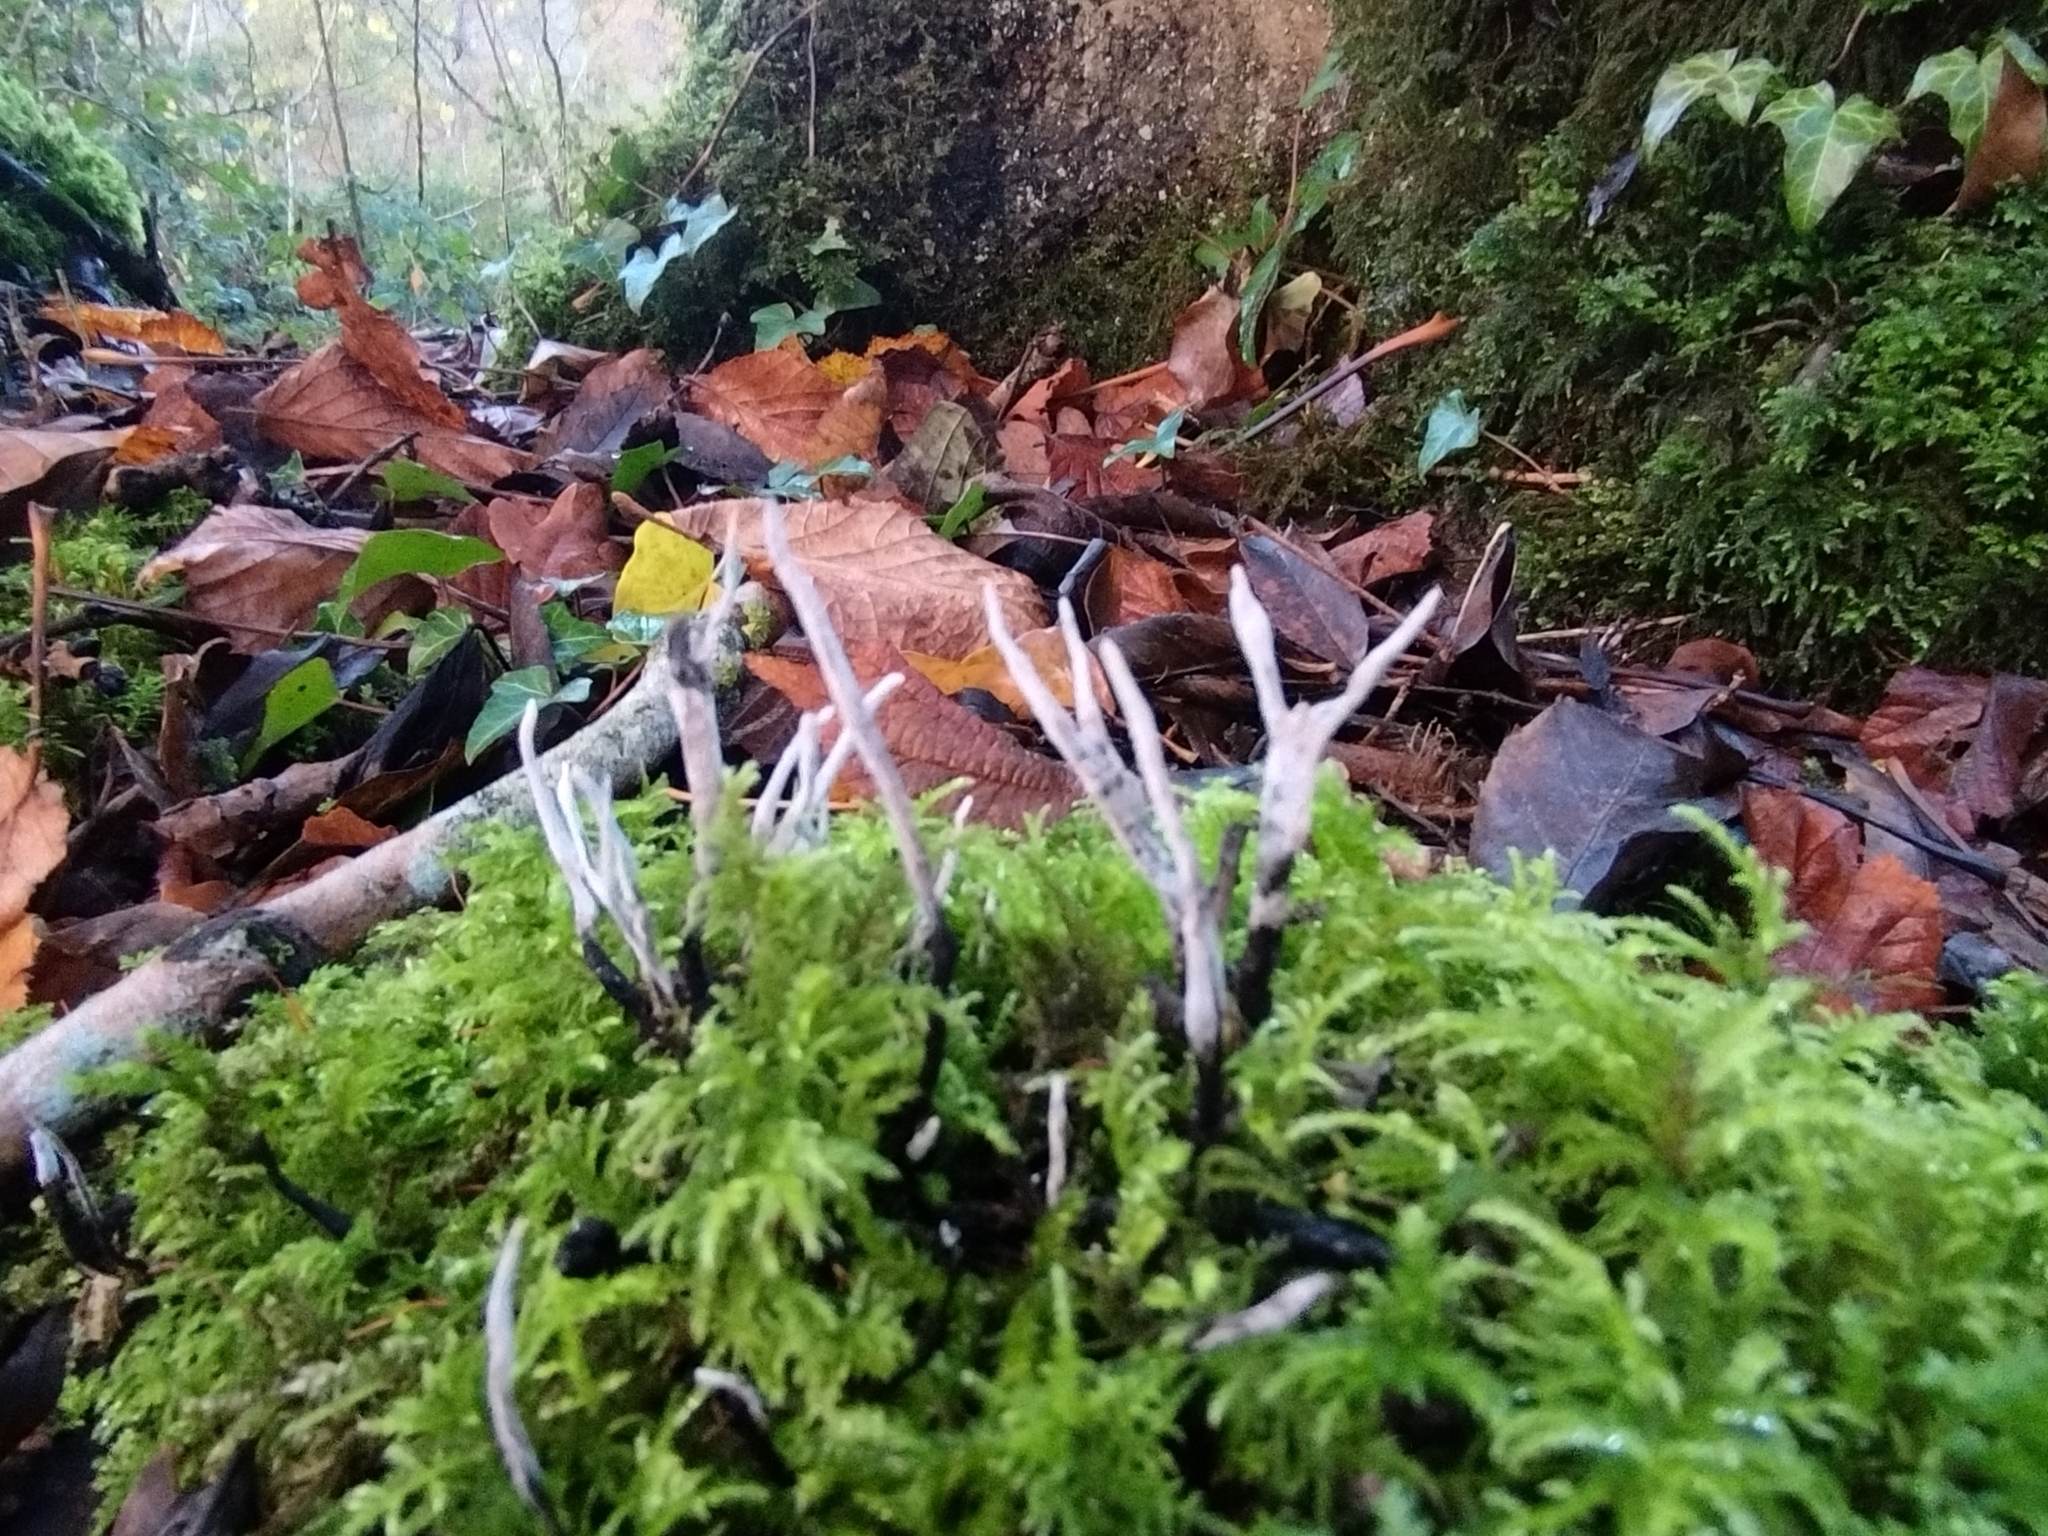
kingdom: Fungi
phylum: Ascomycota
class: Sordariomycetes
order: Xylariales
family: Xylariaceae
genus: Xylaria
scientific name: Xylaria hypoxylon
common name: Candle-snuff fungus
